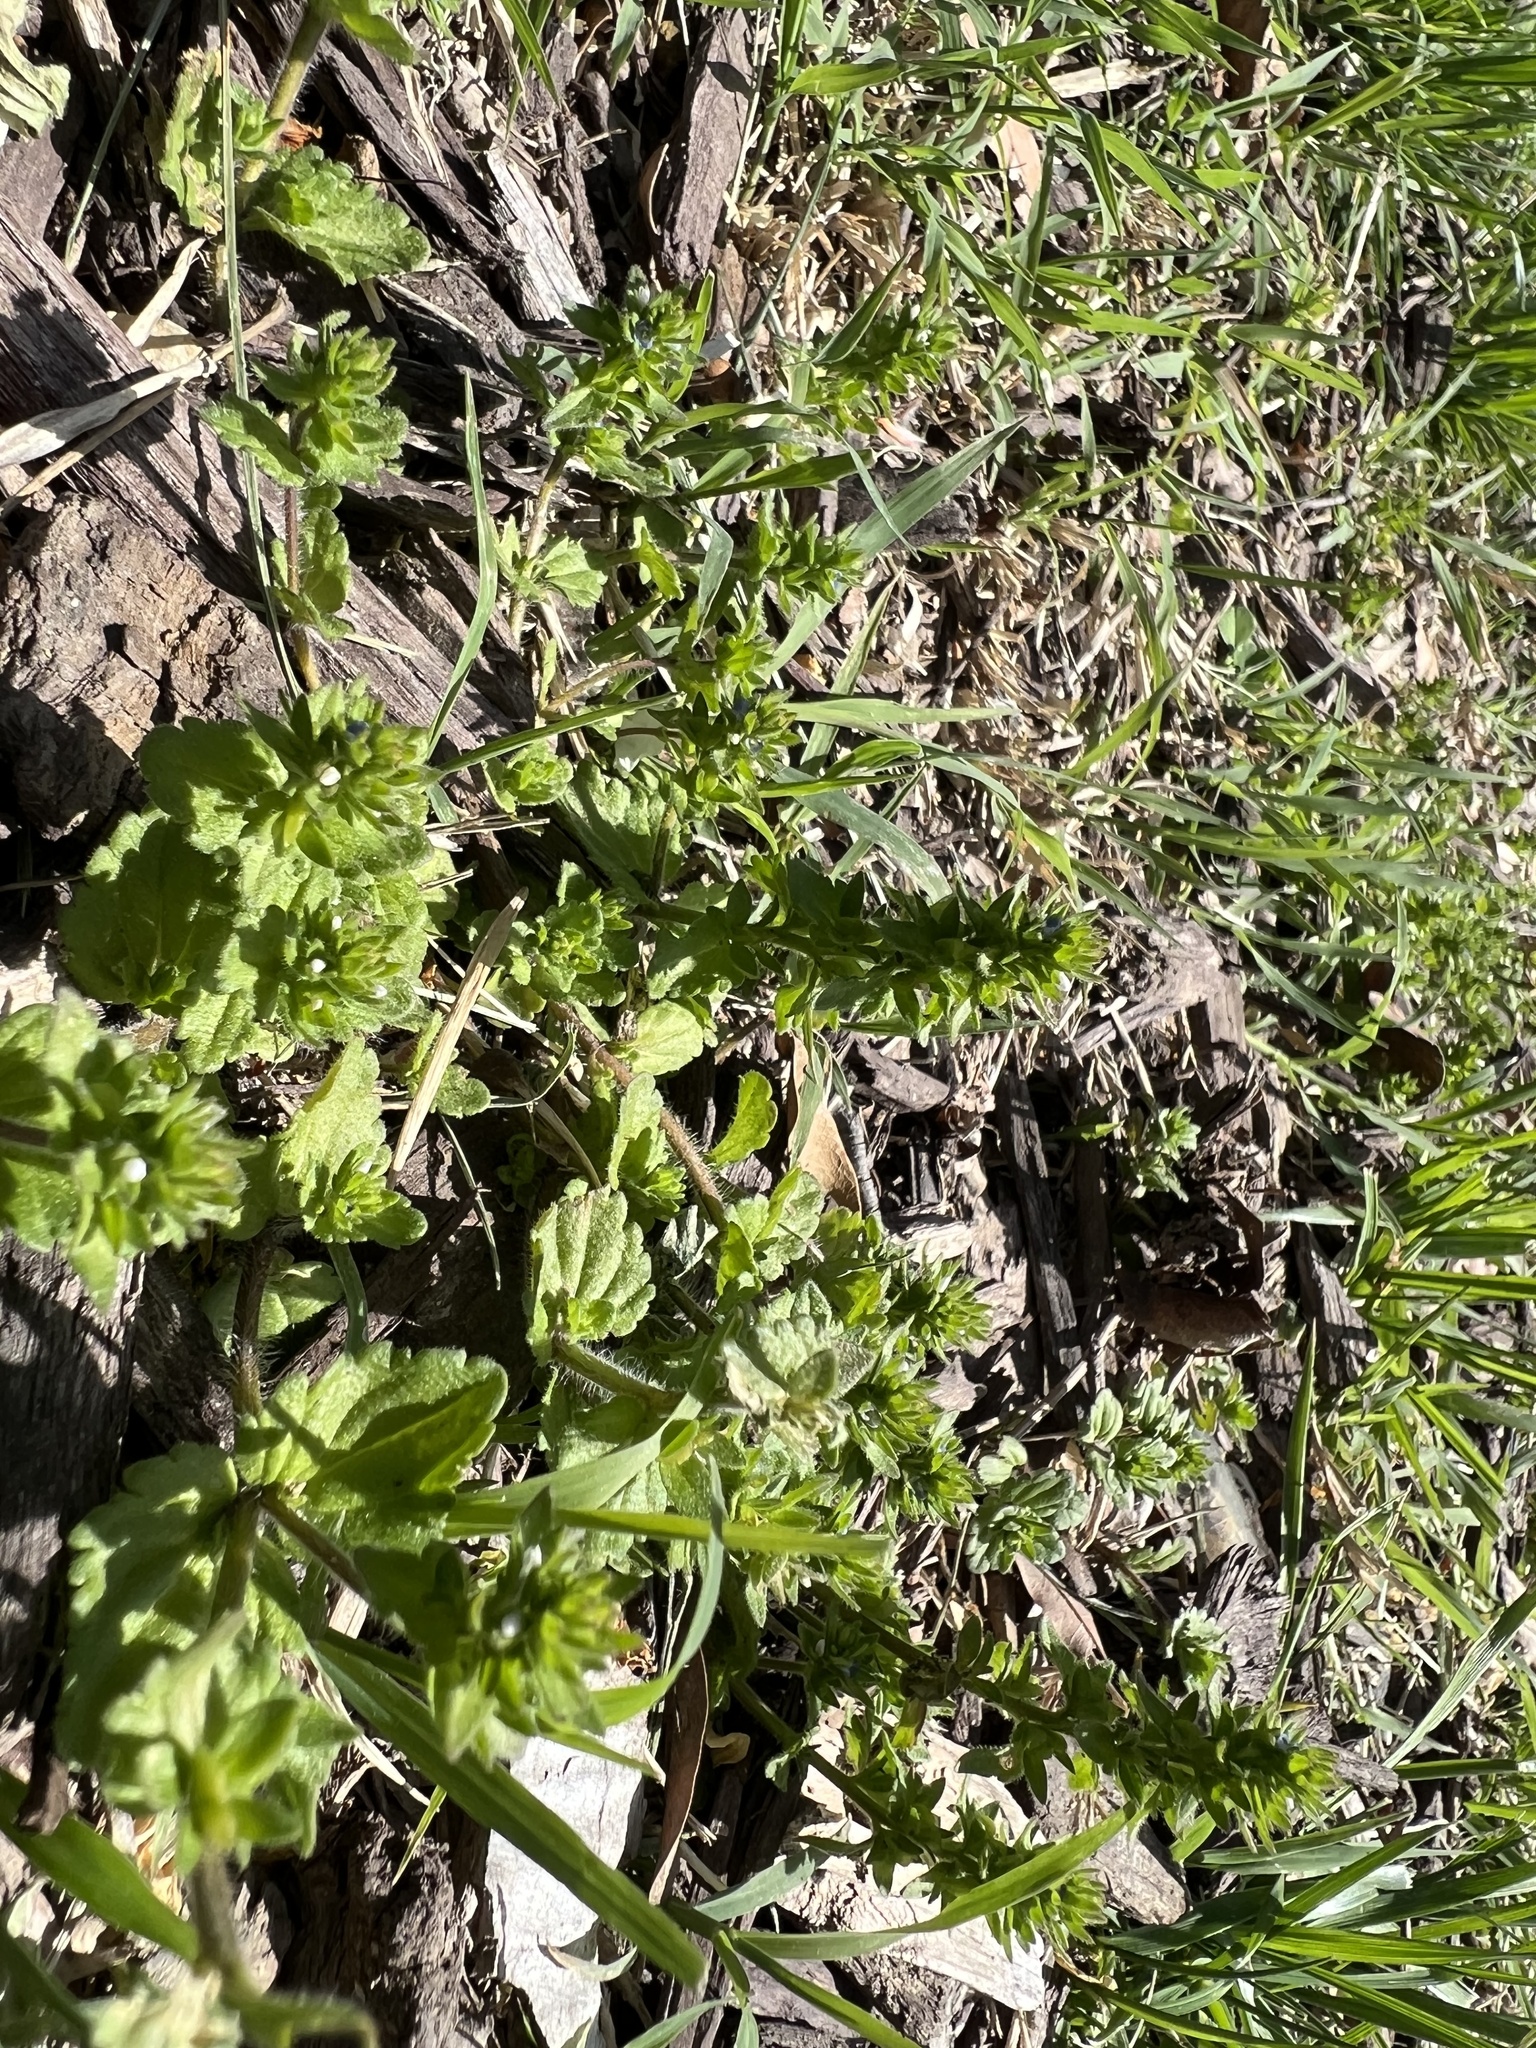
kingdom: Plantae
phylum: Tracheophyta
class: Magnoliopsida
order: Lamiales
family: Plantaginaceae
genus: Veronica
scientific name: Veronica arvensis
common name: Corn speedwell
